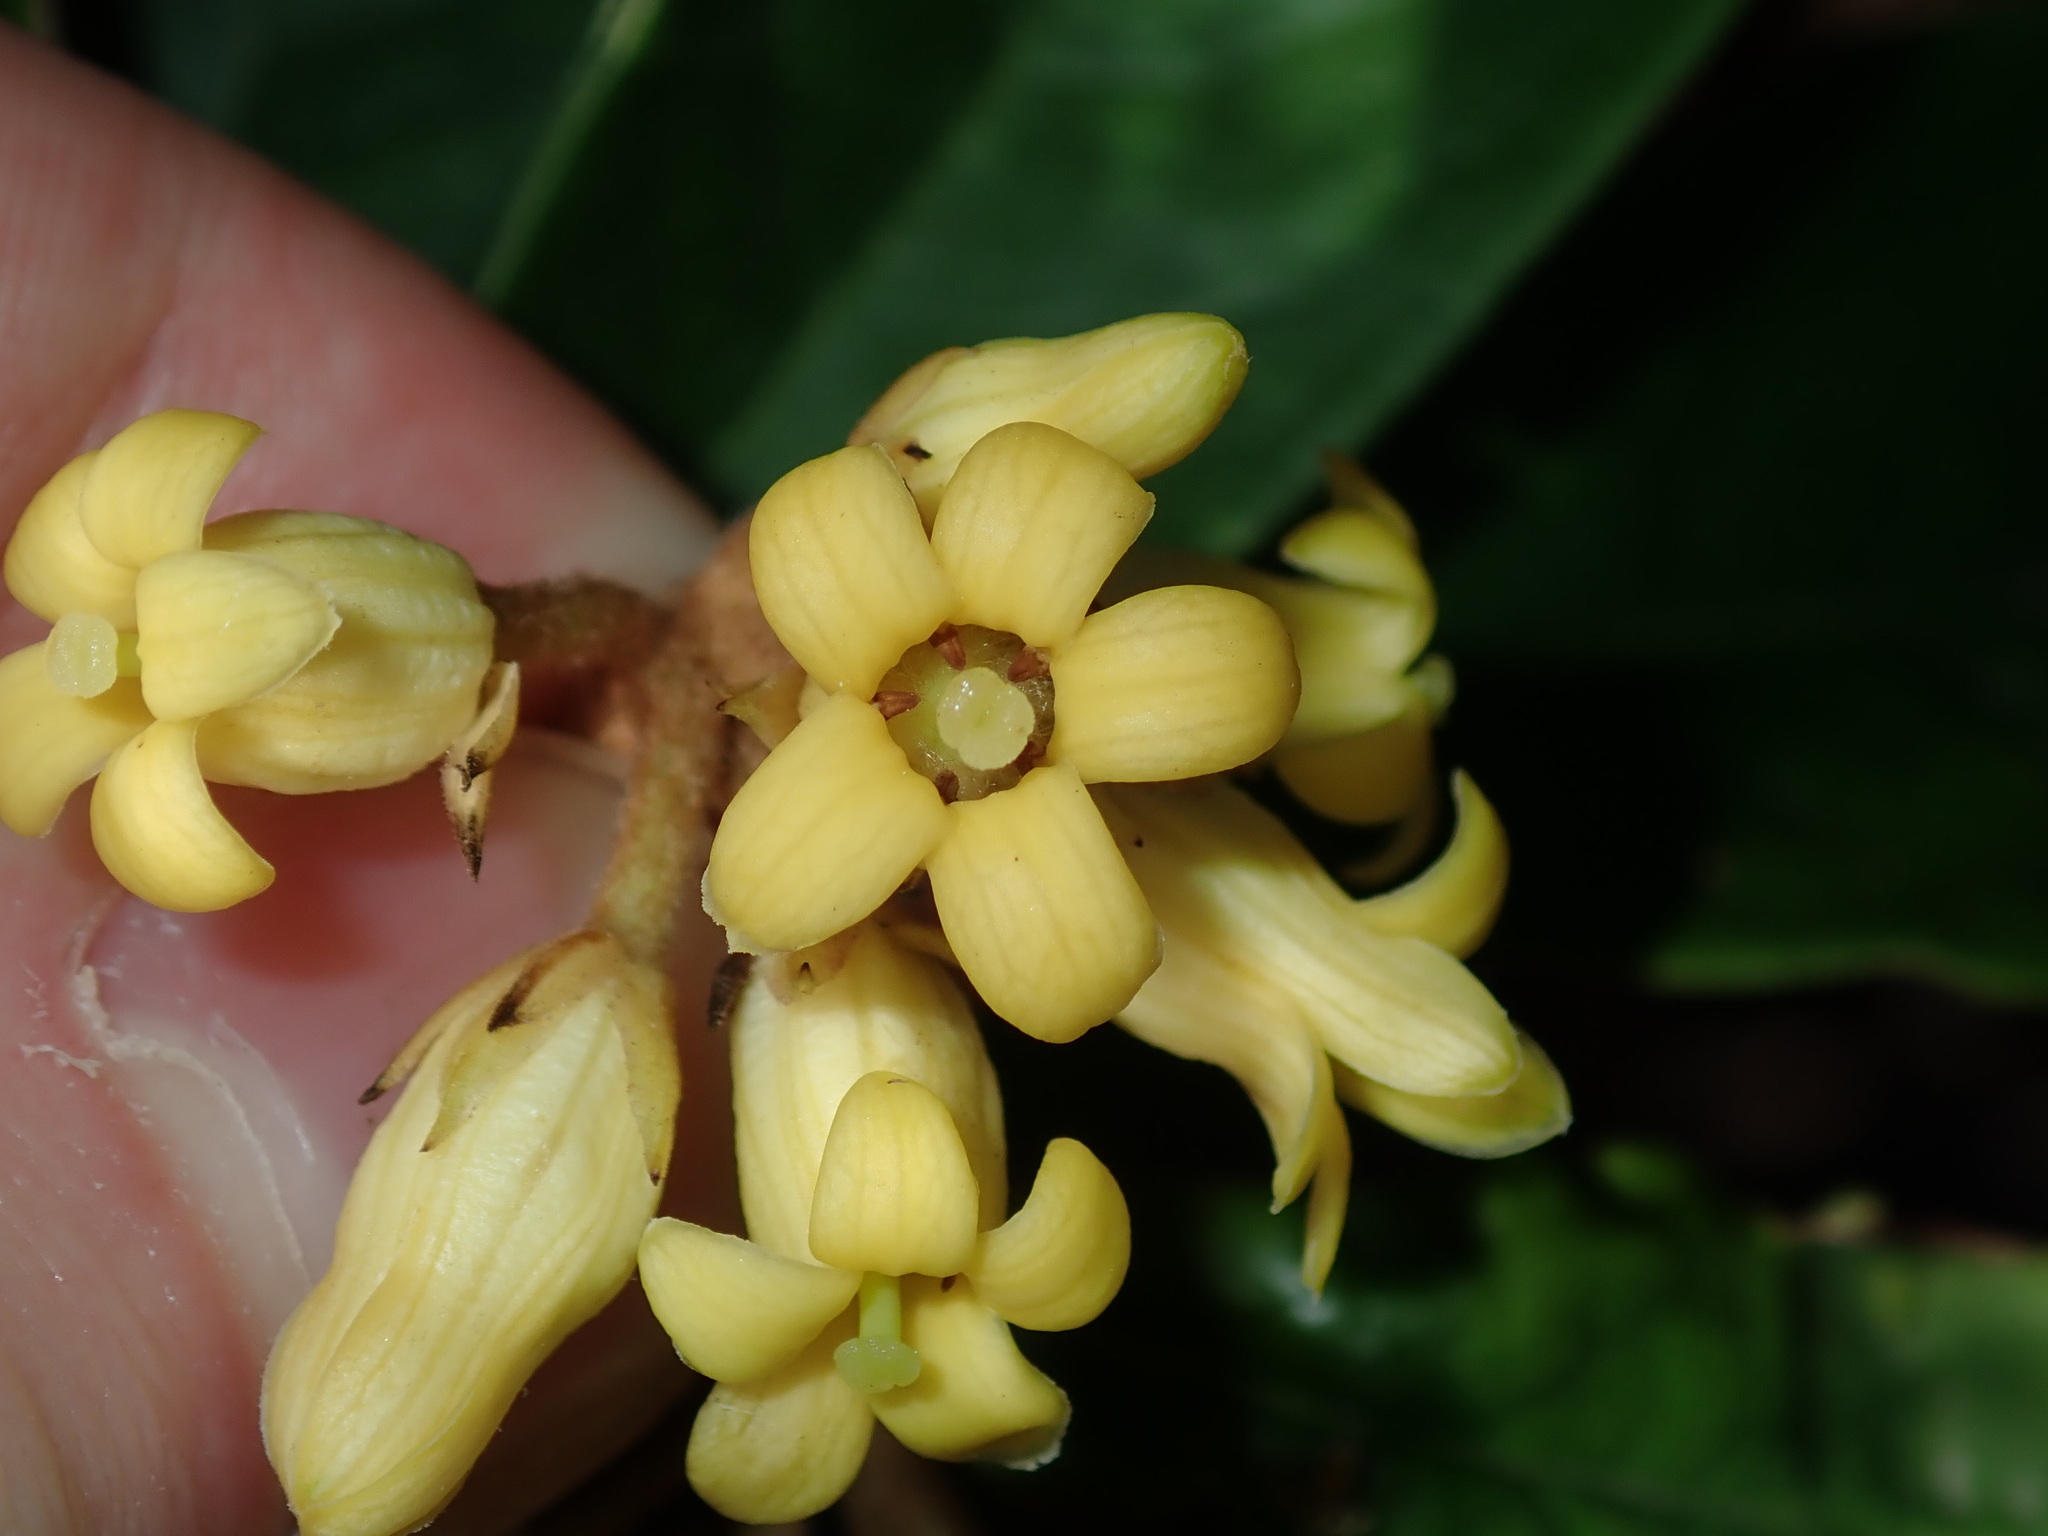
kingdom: Plantae
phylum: Tracheophyta
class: Magnoliopsida
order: Apiales
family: Pittosporaceae
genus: Pittosporum
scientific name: Pittosporum revolutum
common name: Brisbane-laurel
